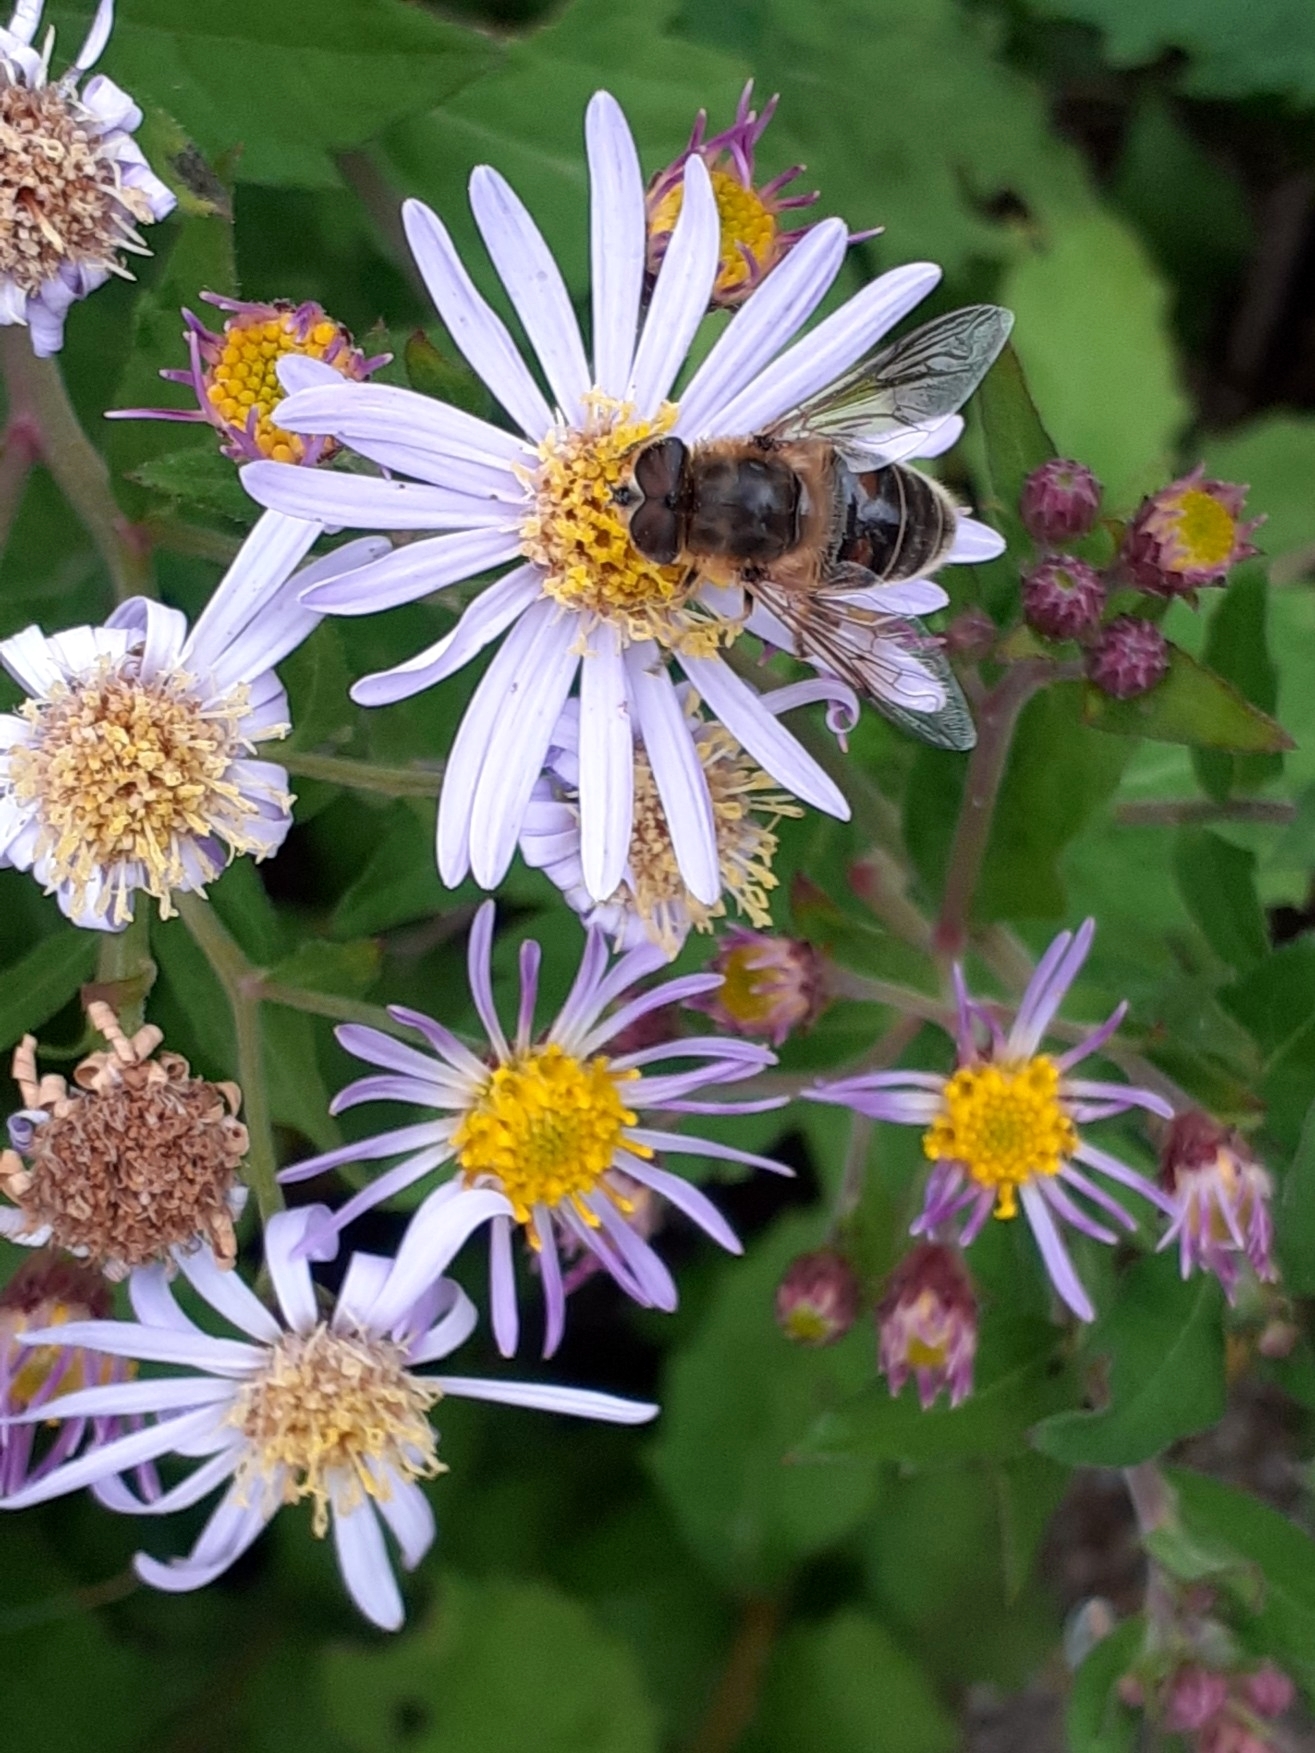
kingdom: Animalia
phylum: Arthropoda
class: Insecta
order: Diptera
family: Syrphidae
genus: Eristalis
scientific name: Eristalis tenax
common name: Drone fly
